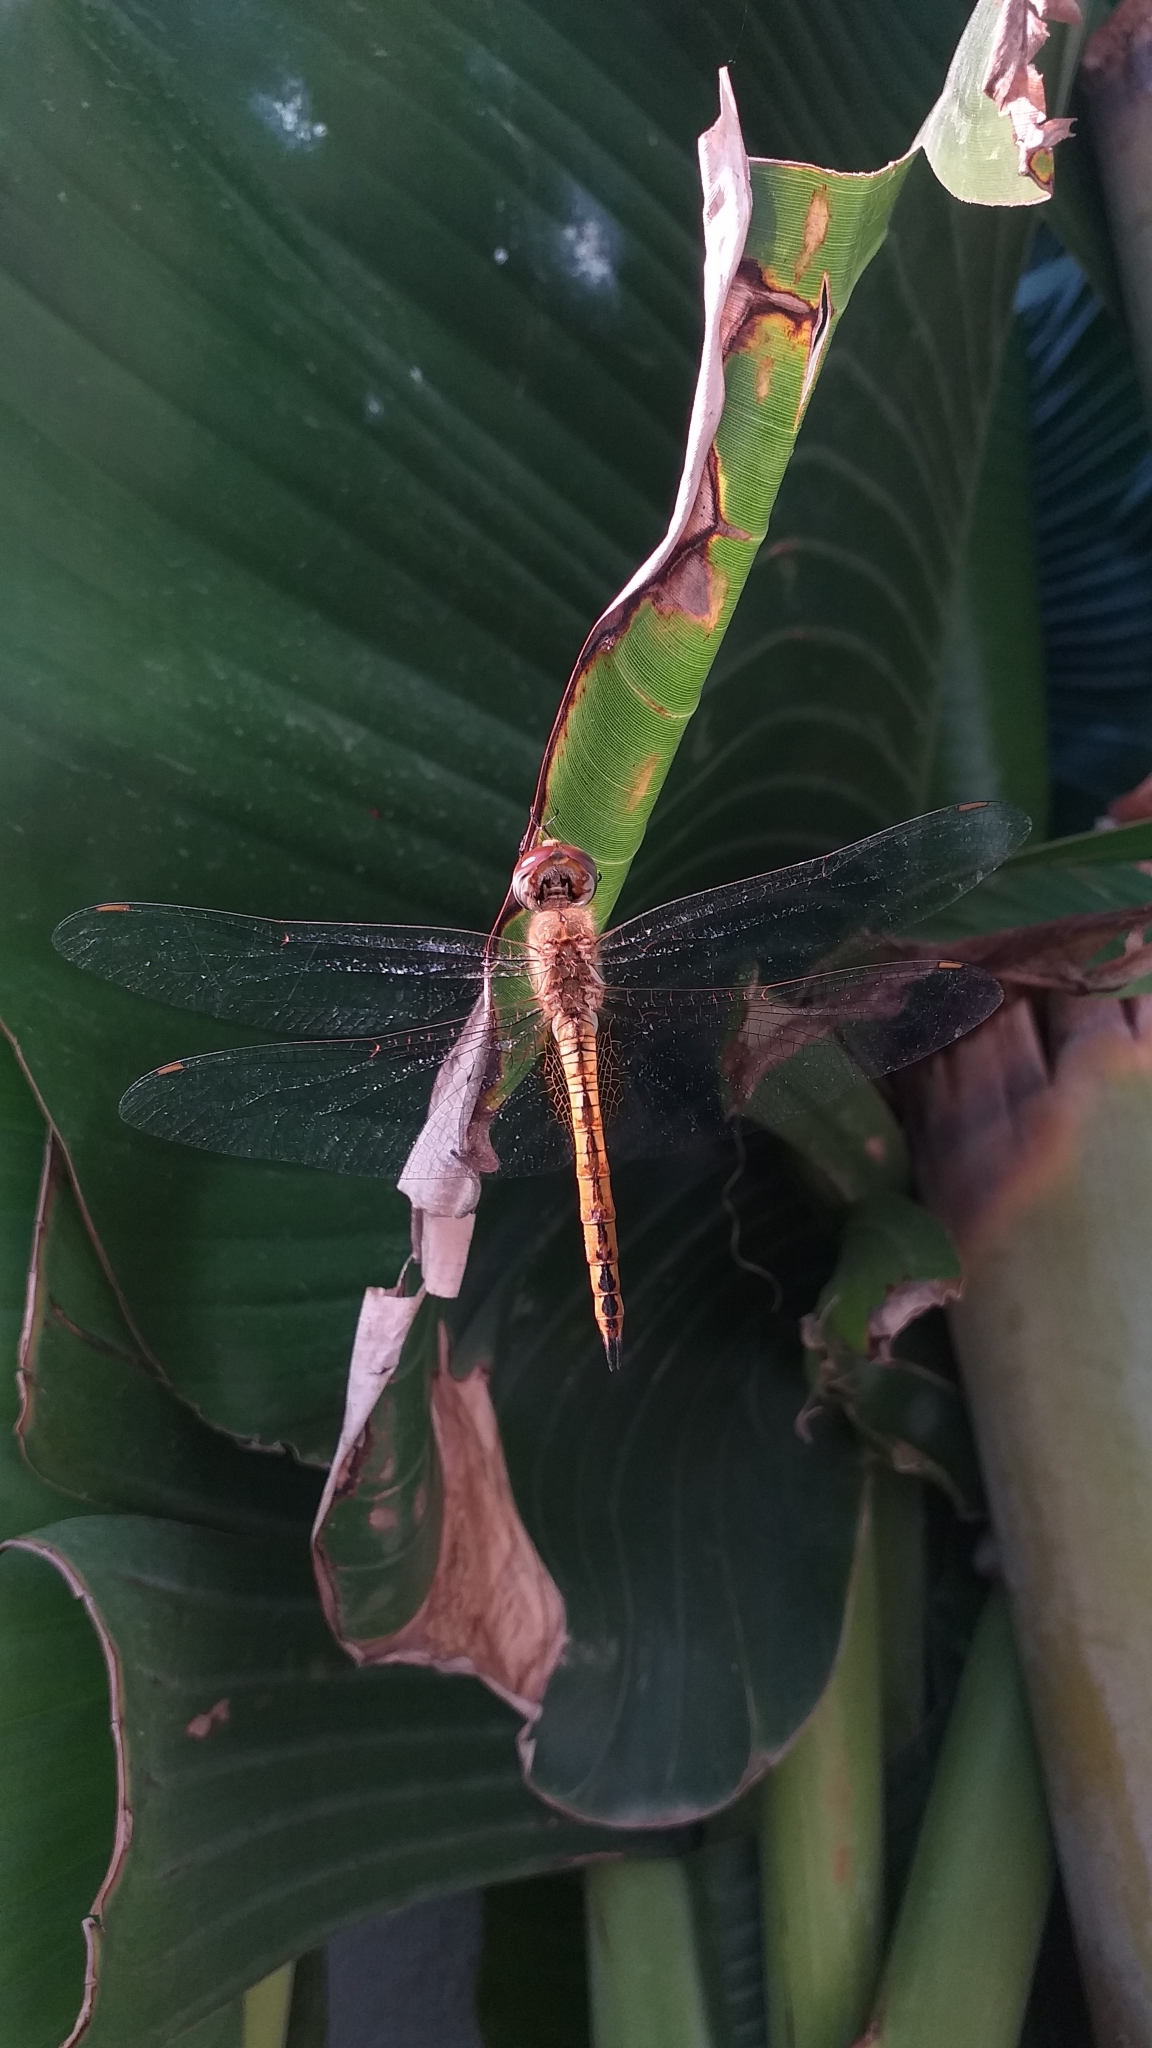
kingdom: Animalia
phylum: Arthropoda
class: Insecta
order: Odonata
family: Libellulidae
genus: Pantala
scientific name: Pantala flavescens
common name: Wandering glider
